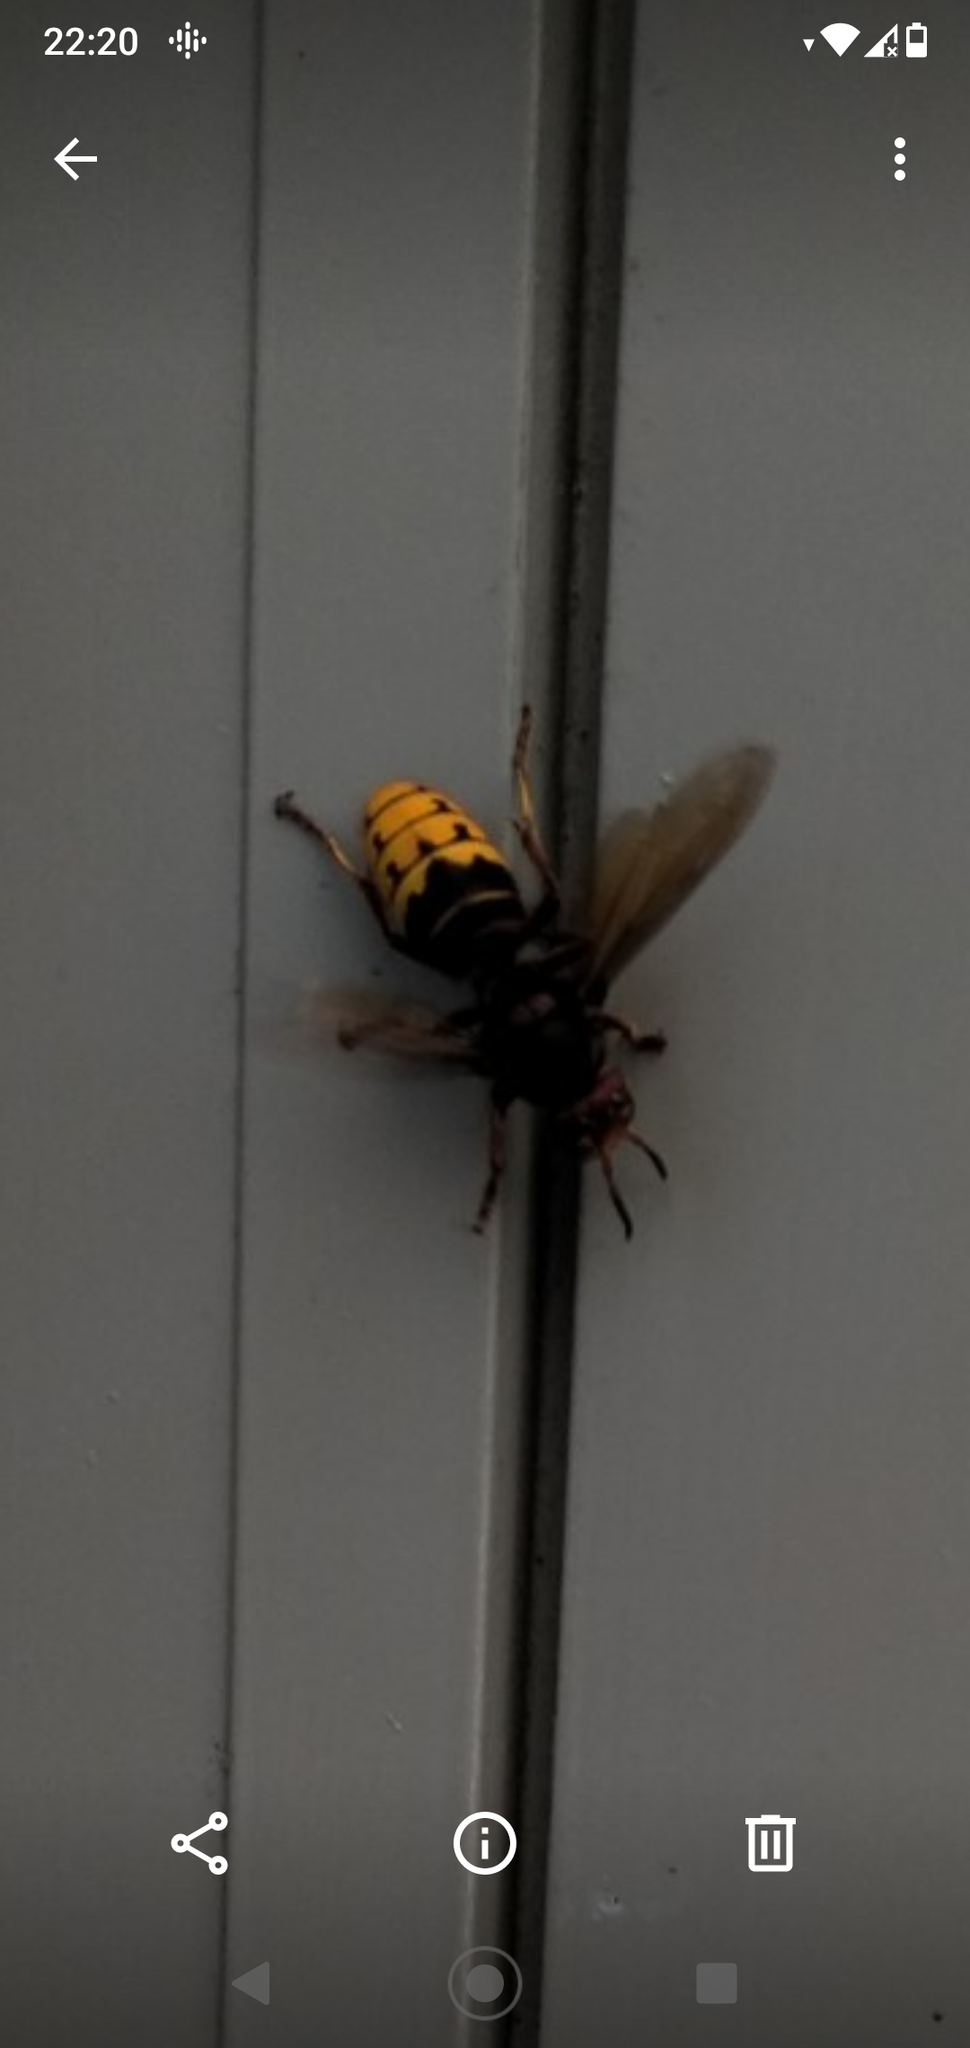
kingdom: Animalia
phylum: Arthropoda
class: Insecta
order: Hymenoptera
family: Vespidae
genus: Vespa
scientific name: Vespa crabro
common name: Hornet
